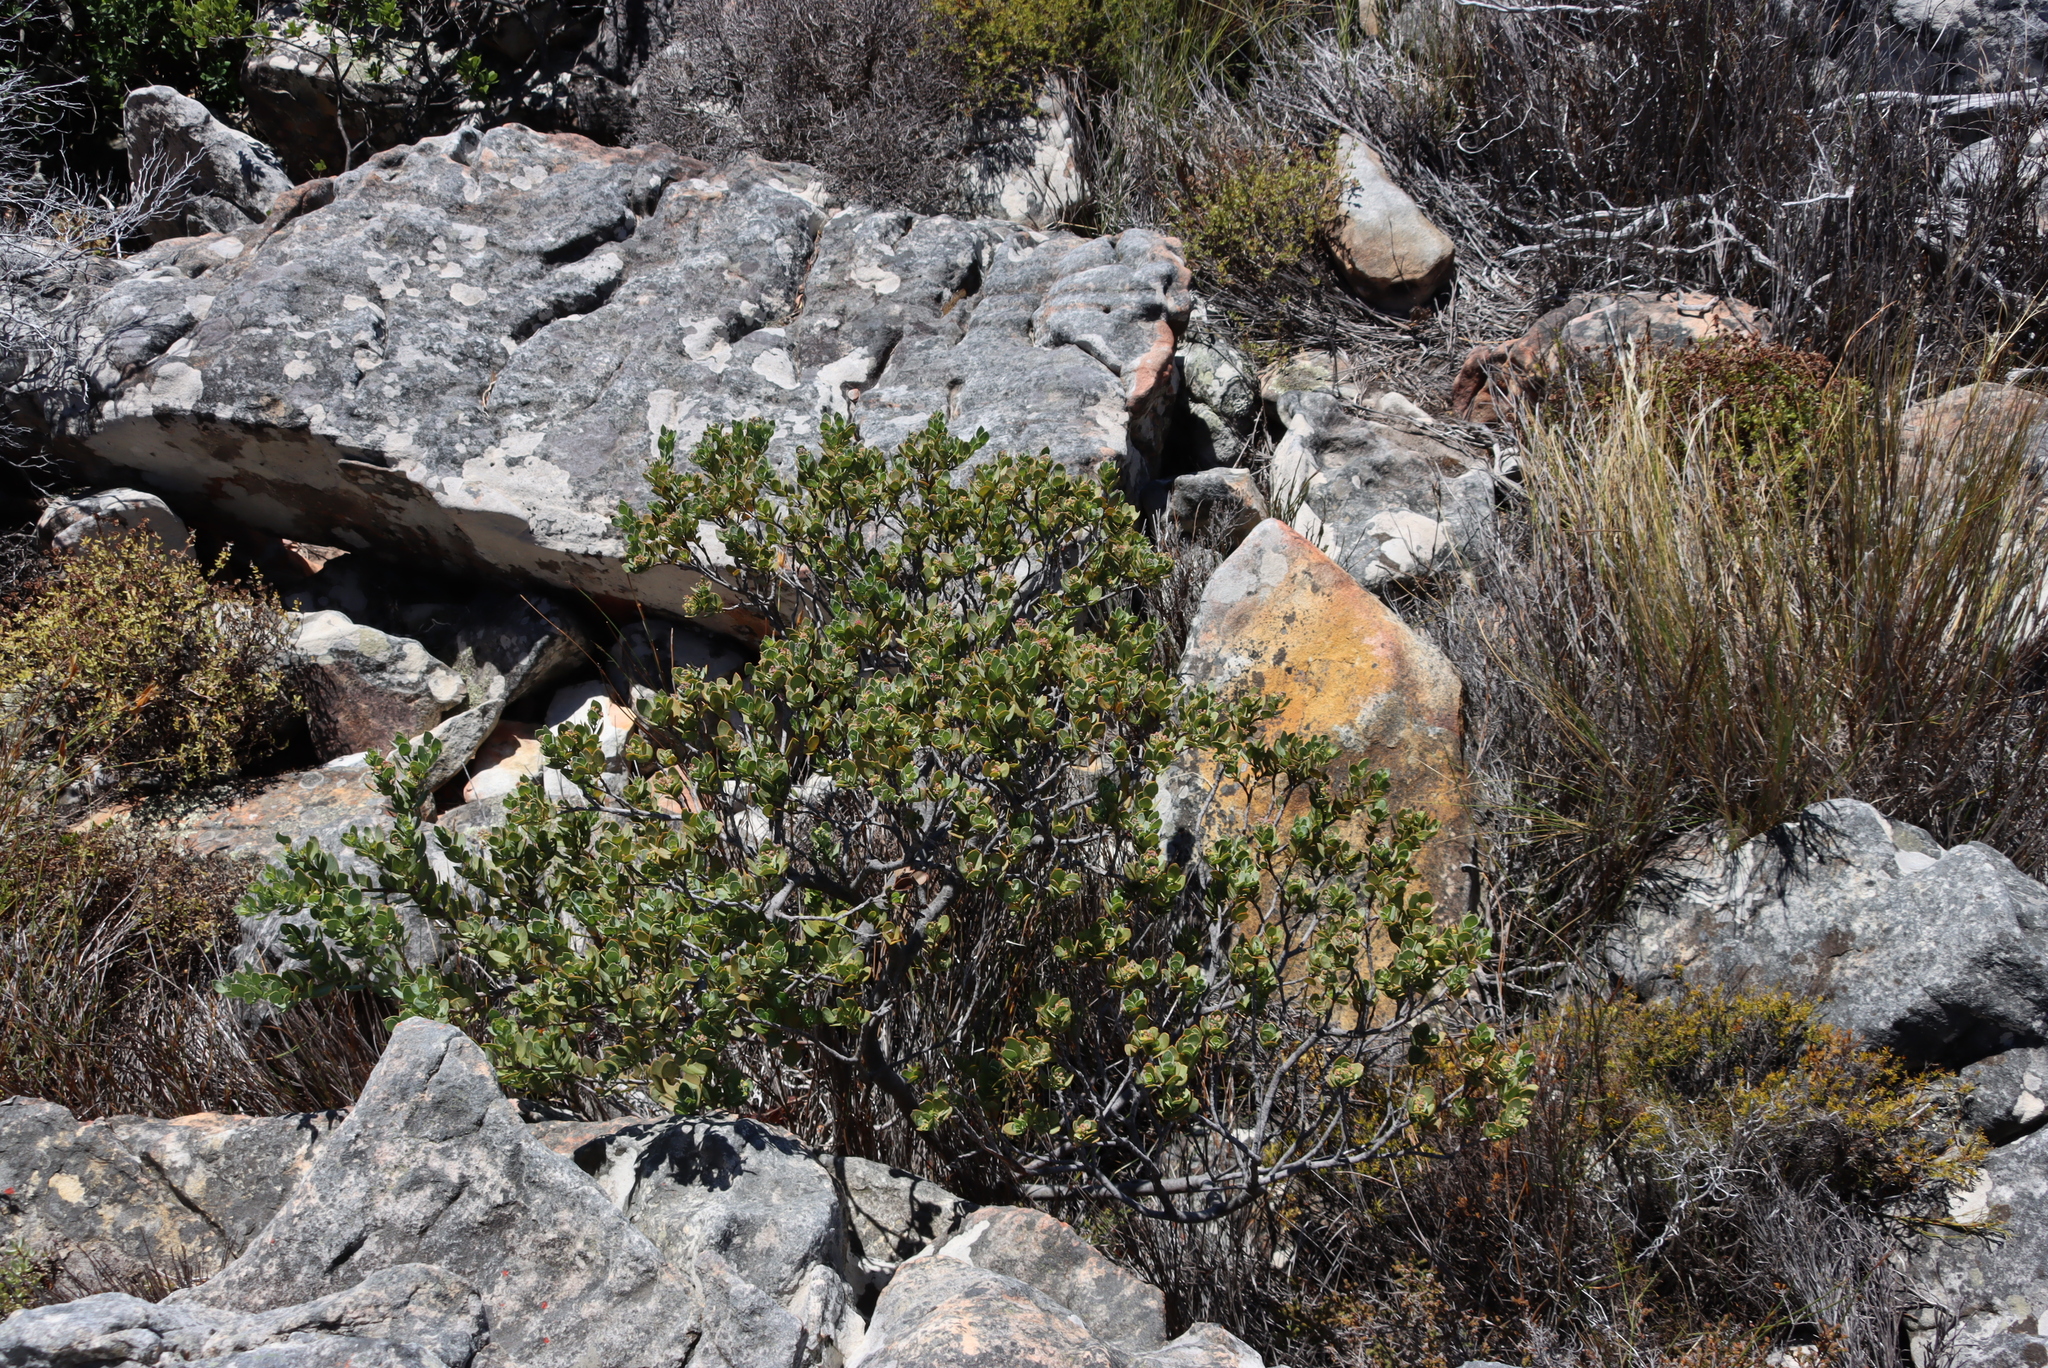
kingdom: Plantae
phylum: Tracheophyta
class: Magnoliopsida
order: Santalales
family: Santalaceae
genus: Osyris
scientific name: Osyris compressa
